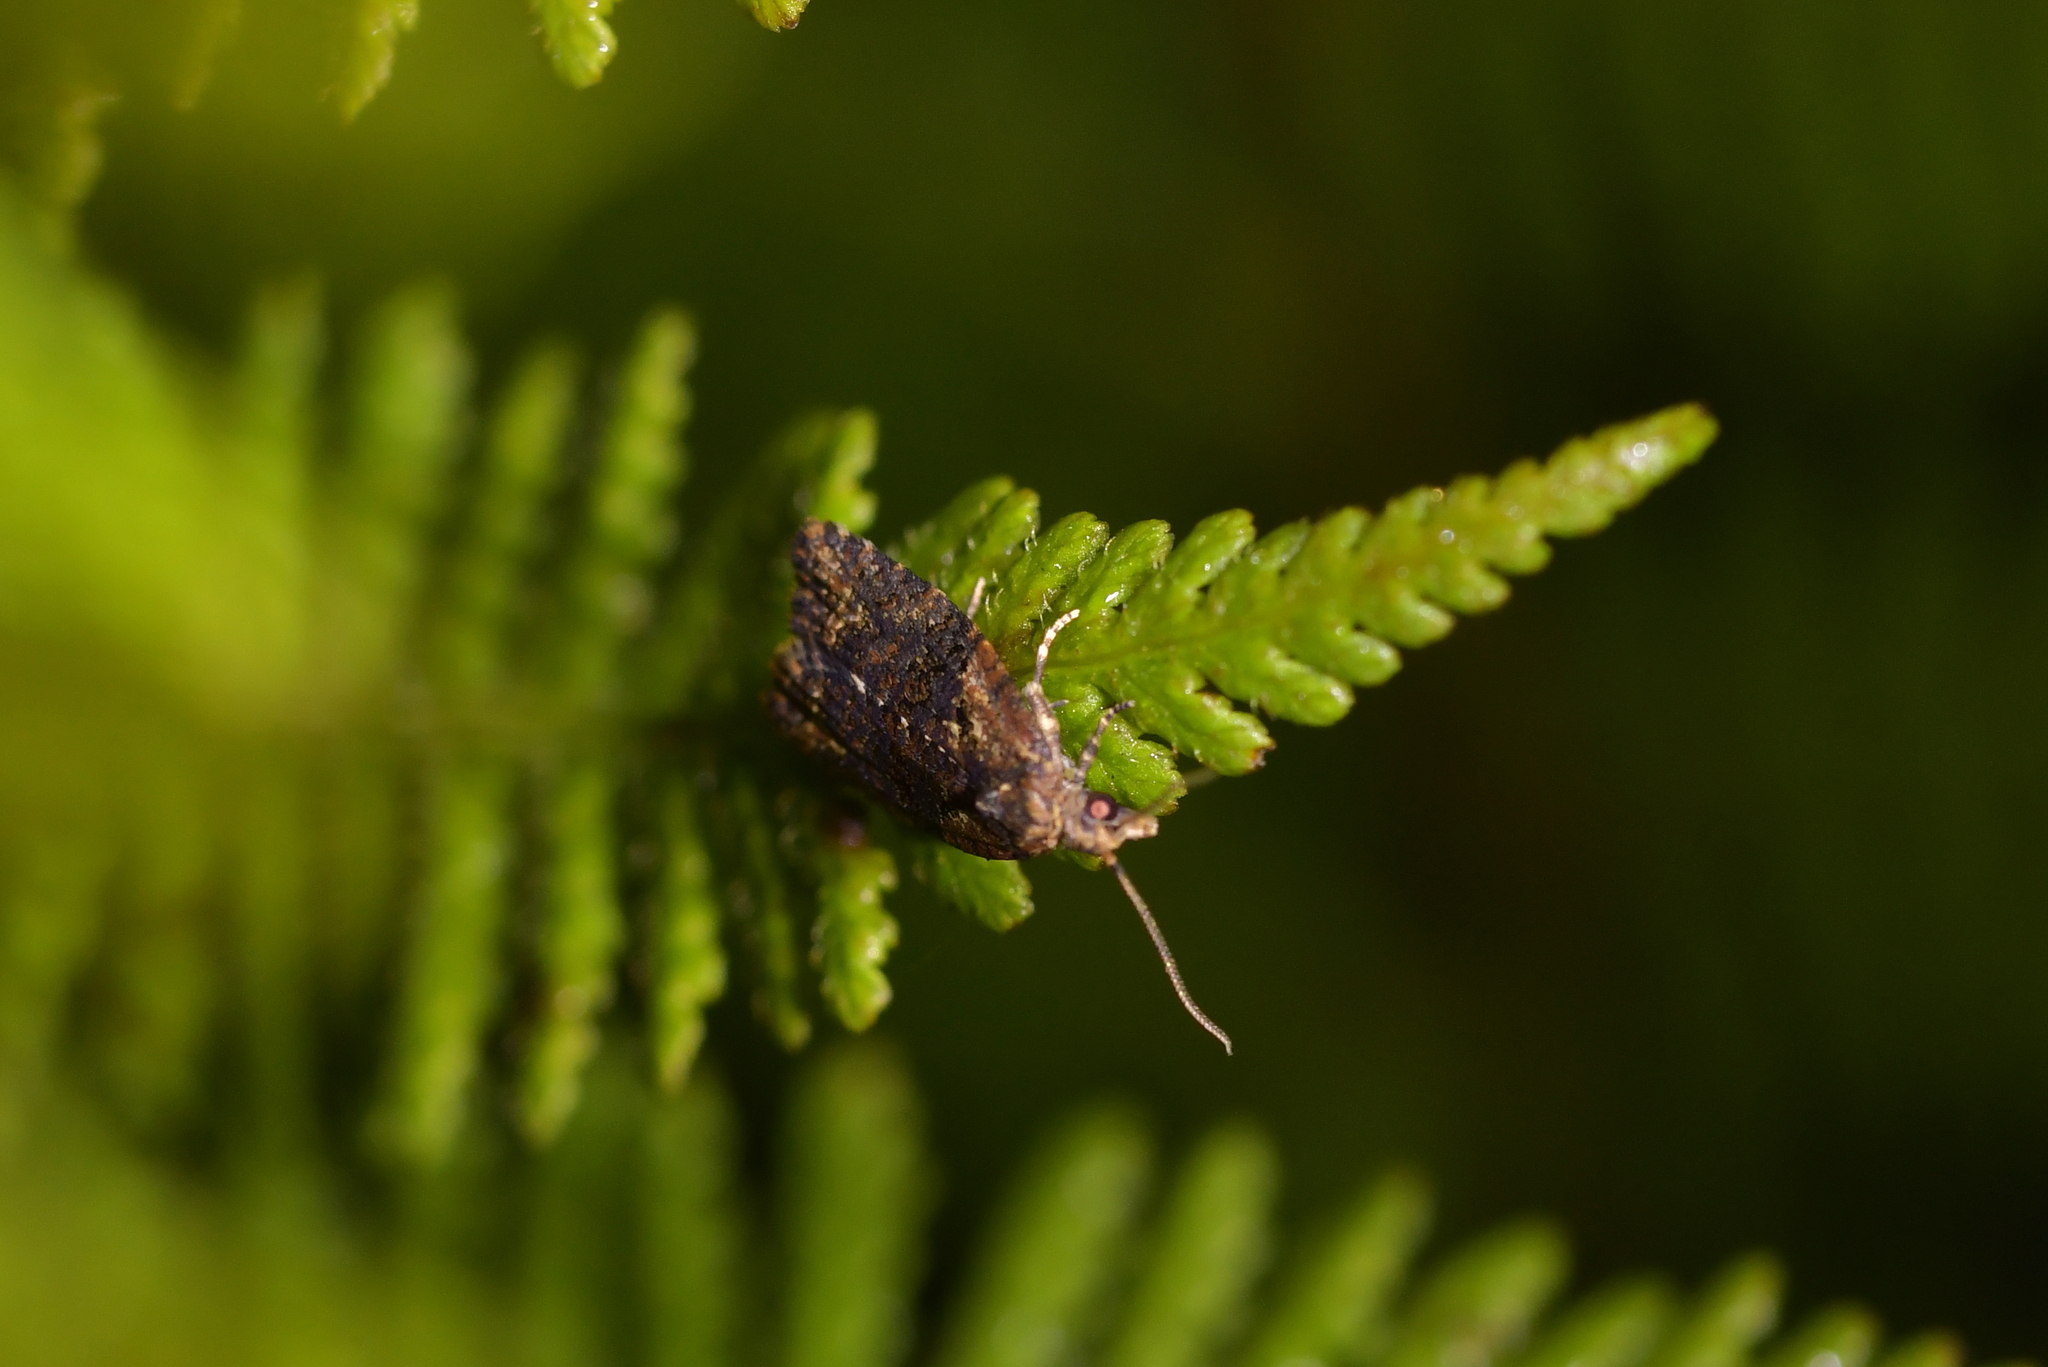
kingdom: Animalia
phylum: Arthropoda
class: Insecta
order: Lepidoptera
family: Tortricidae
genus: Capua
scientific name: Capua intractana
